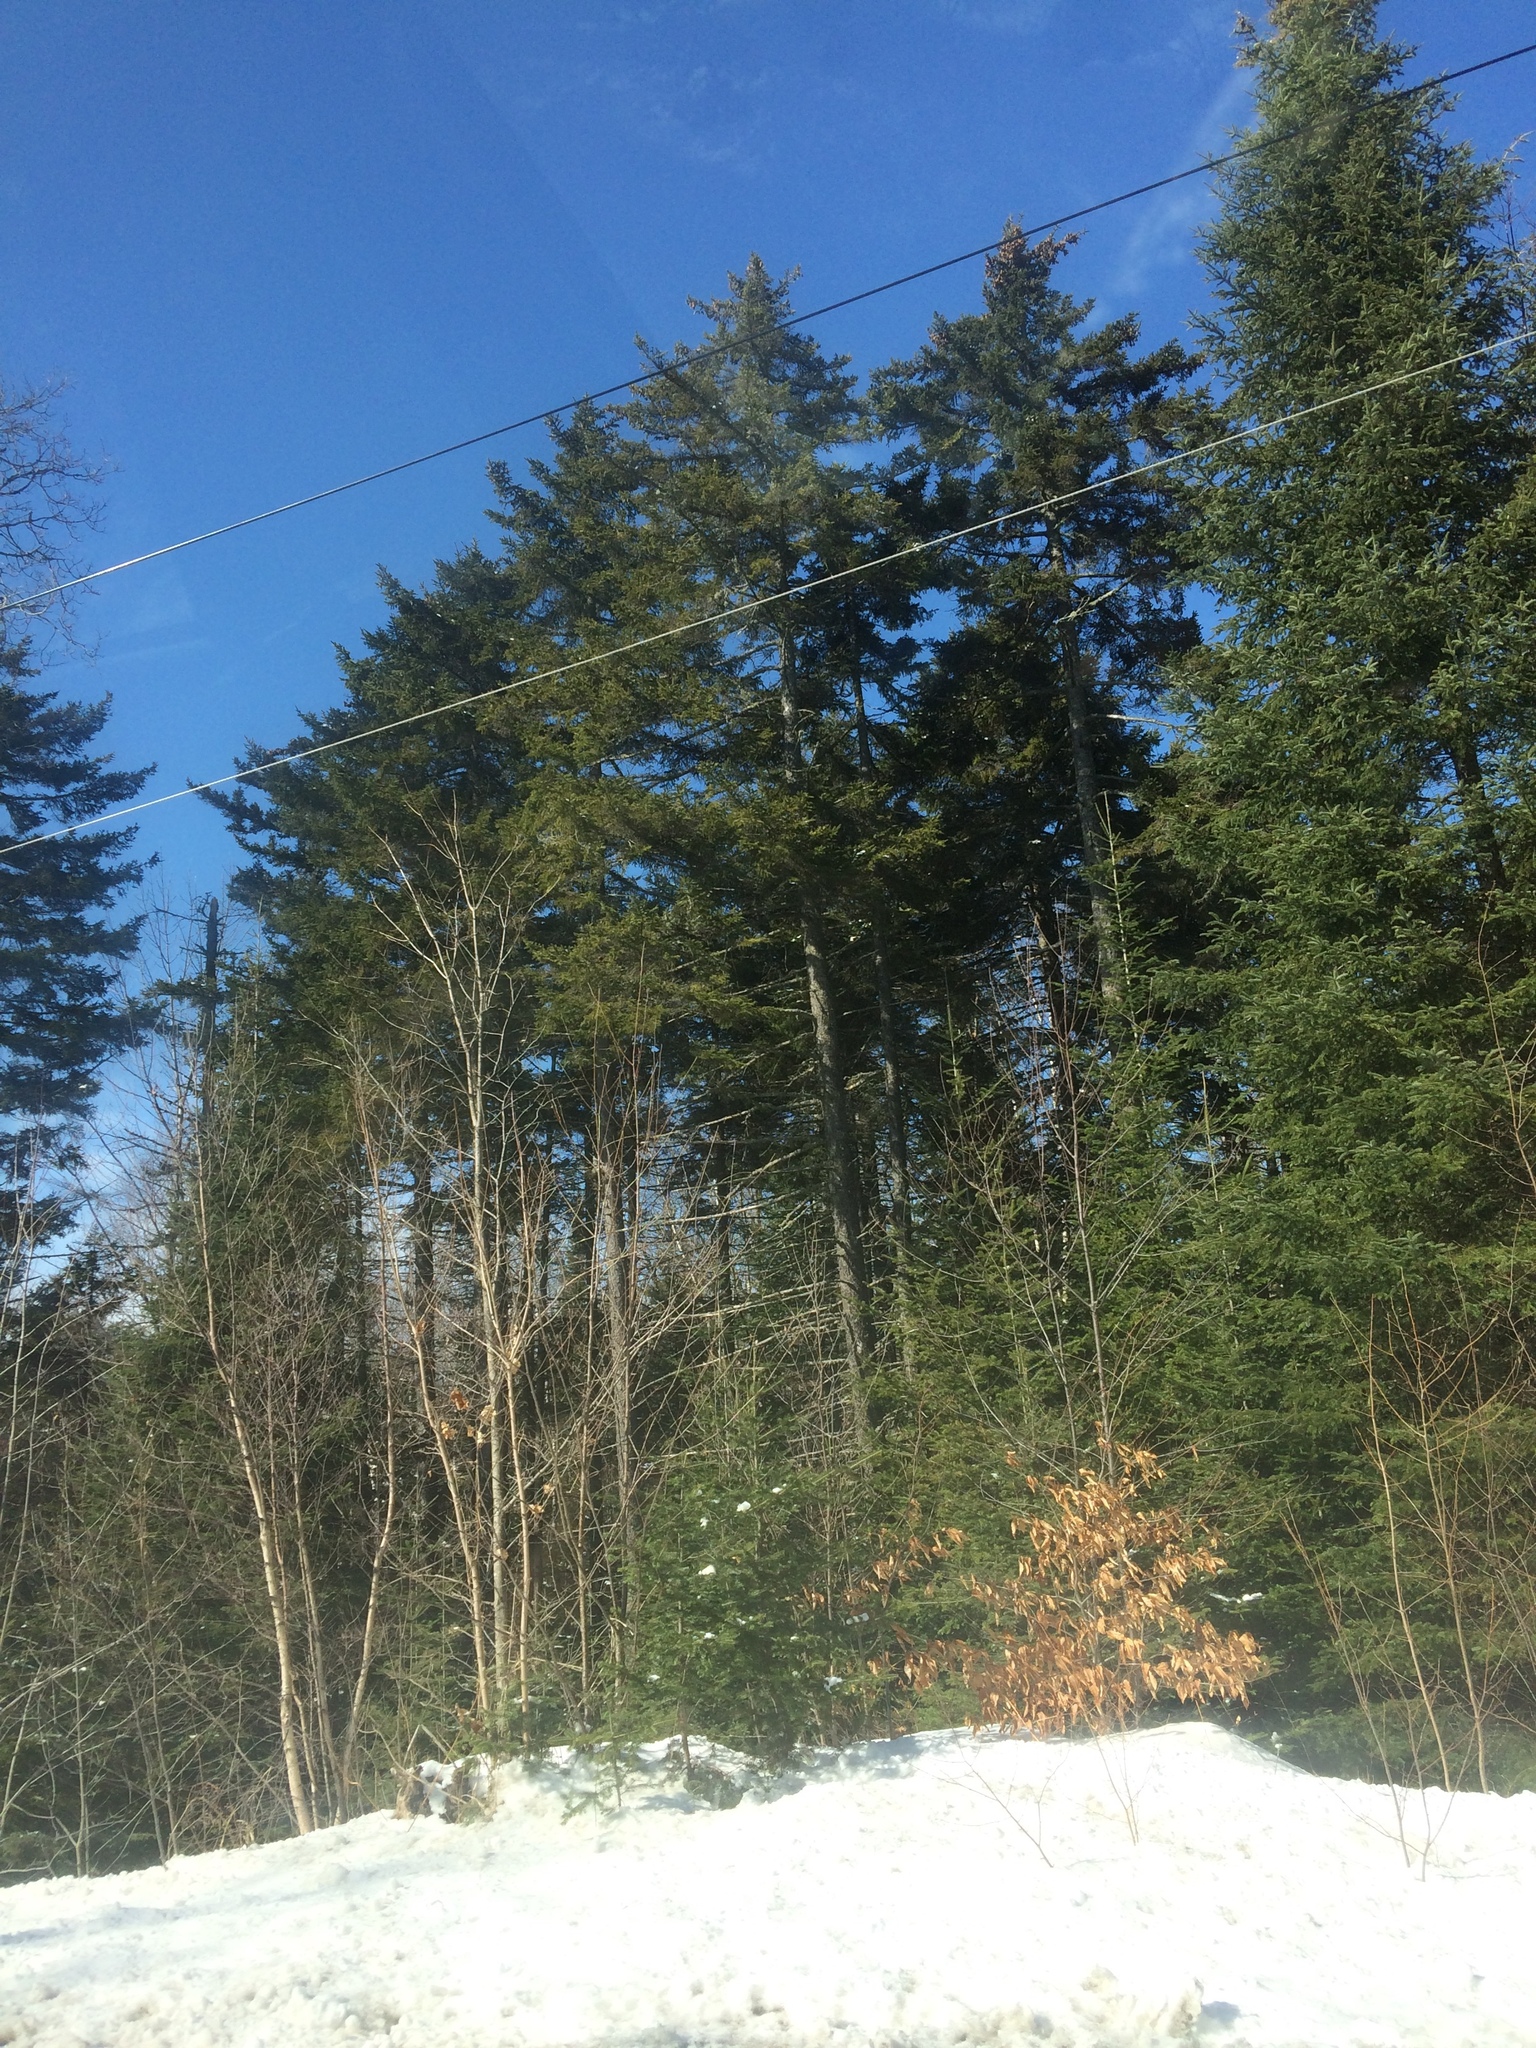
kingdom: Plantae
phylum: Tracheophyta
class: Magnoliopsida
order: Fagales
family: Fagaceae
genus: Fagus
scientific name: Fagus grandifolia
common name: American beech
